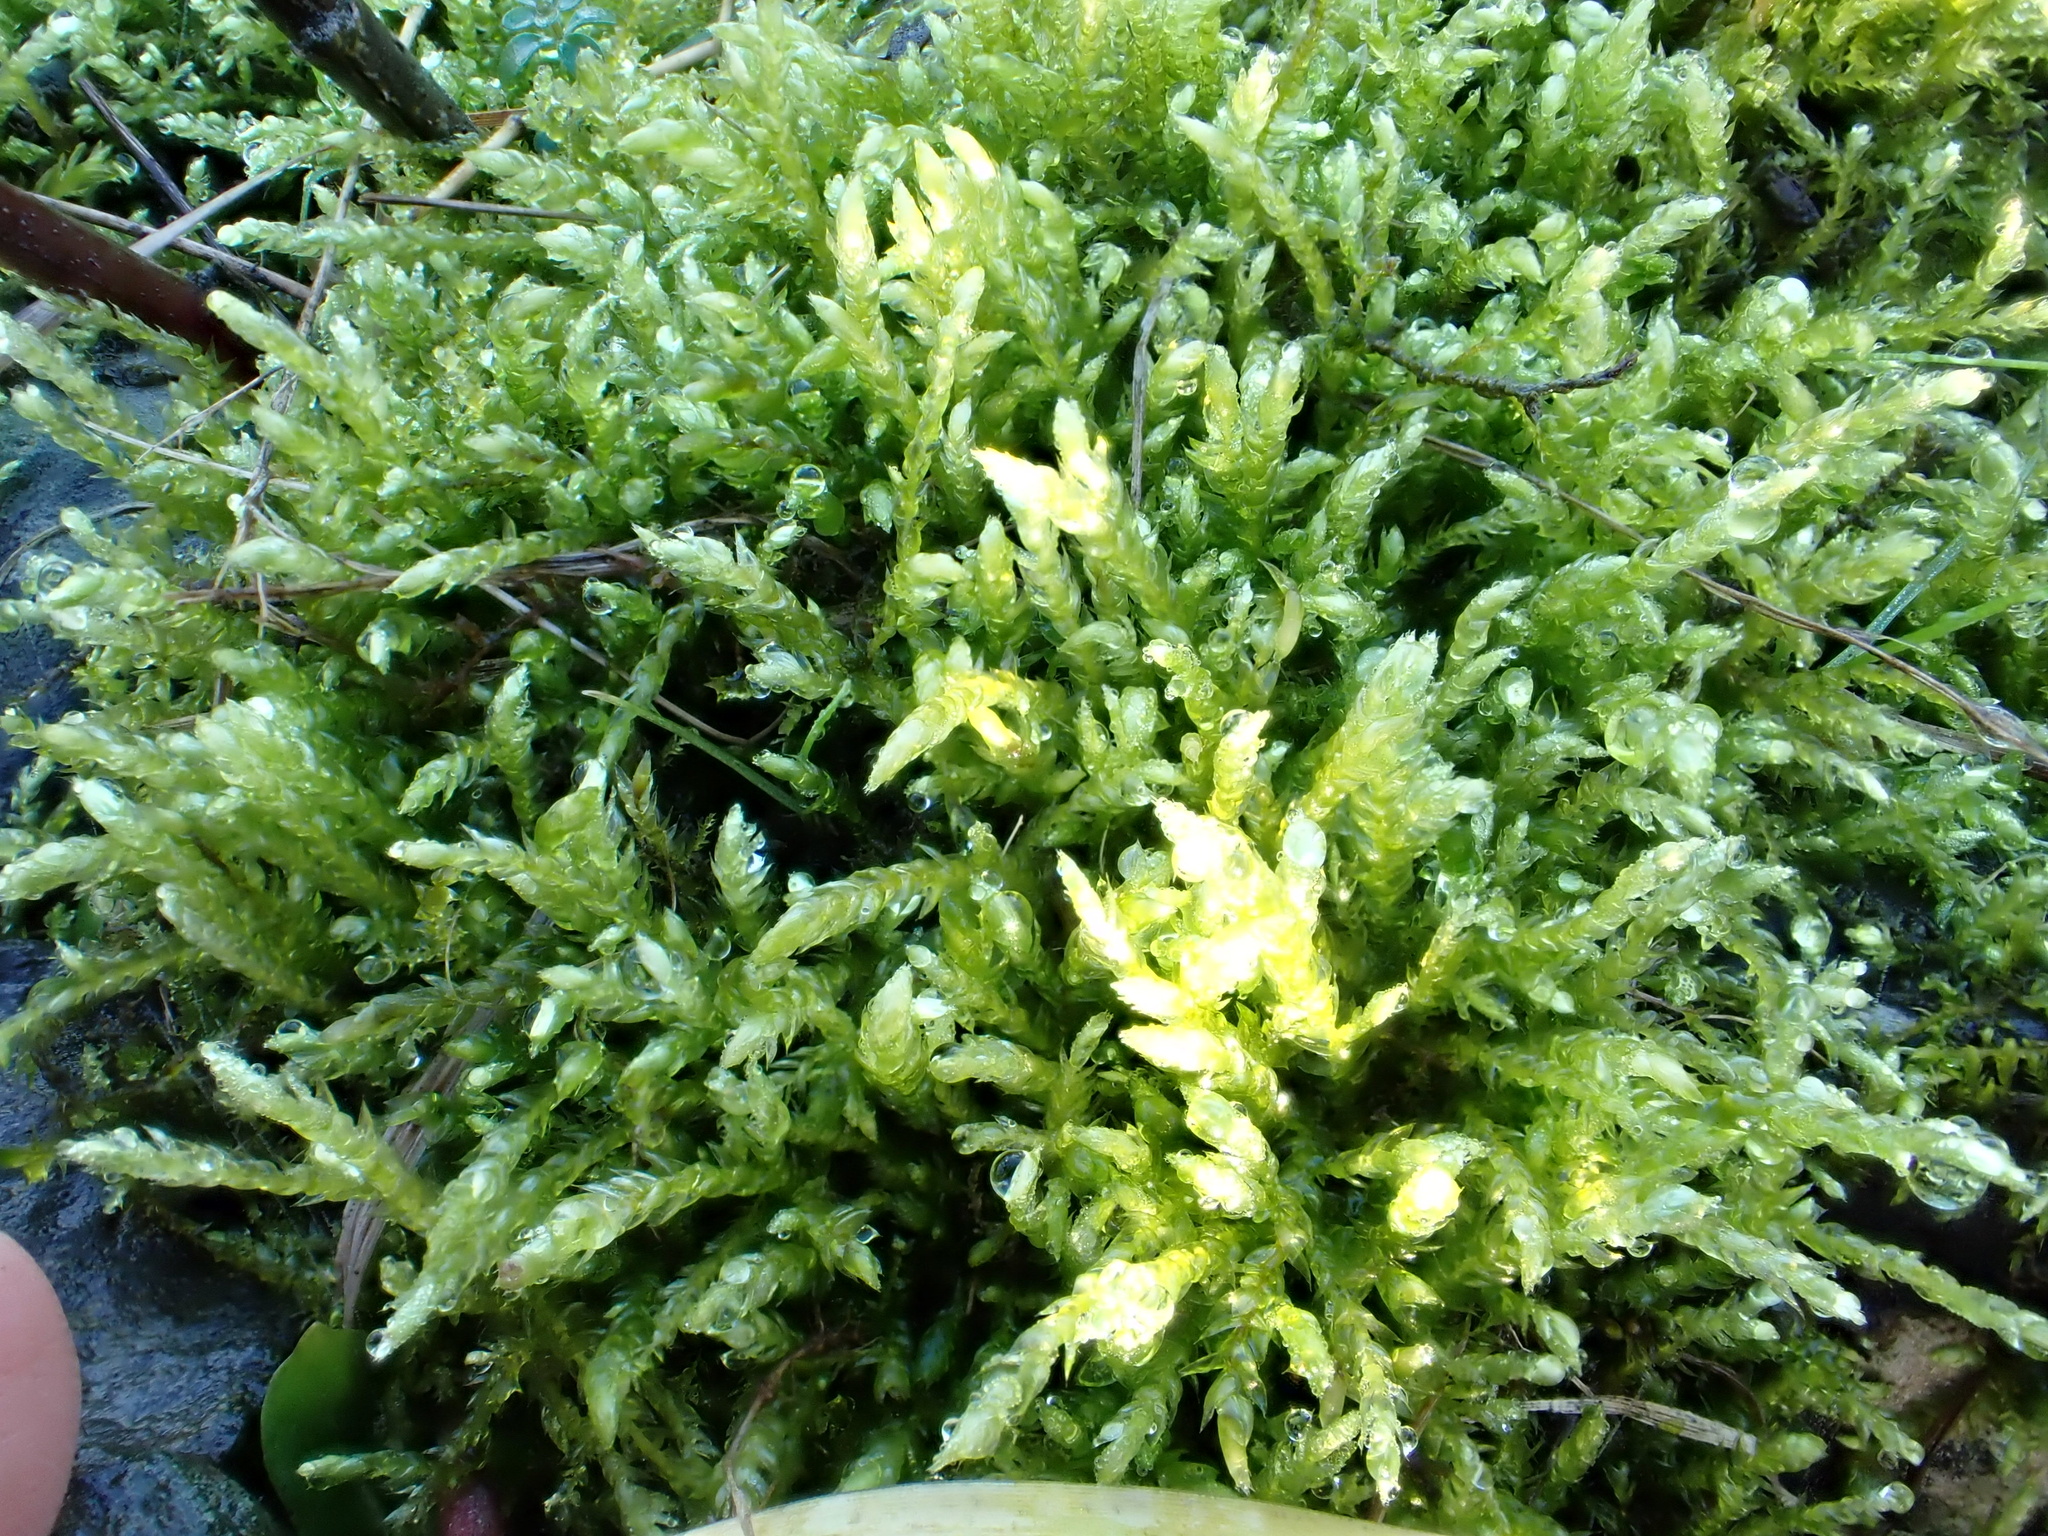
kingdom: Plantae
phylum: Bryophyta
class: Bryopsida
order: Hypnales
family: Brachytheciaceae
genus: Pseudoscleropodium
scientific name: Pseudoscleropodium purum
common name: Neat feather-moss
